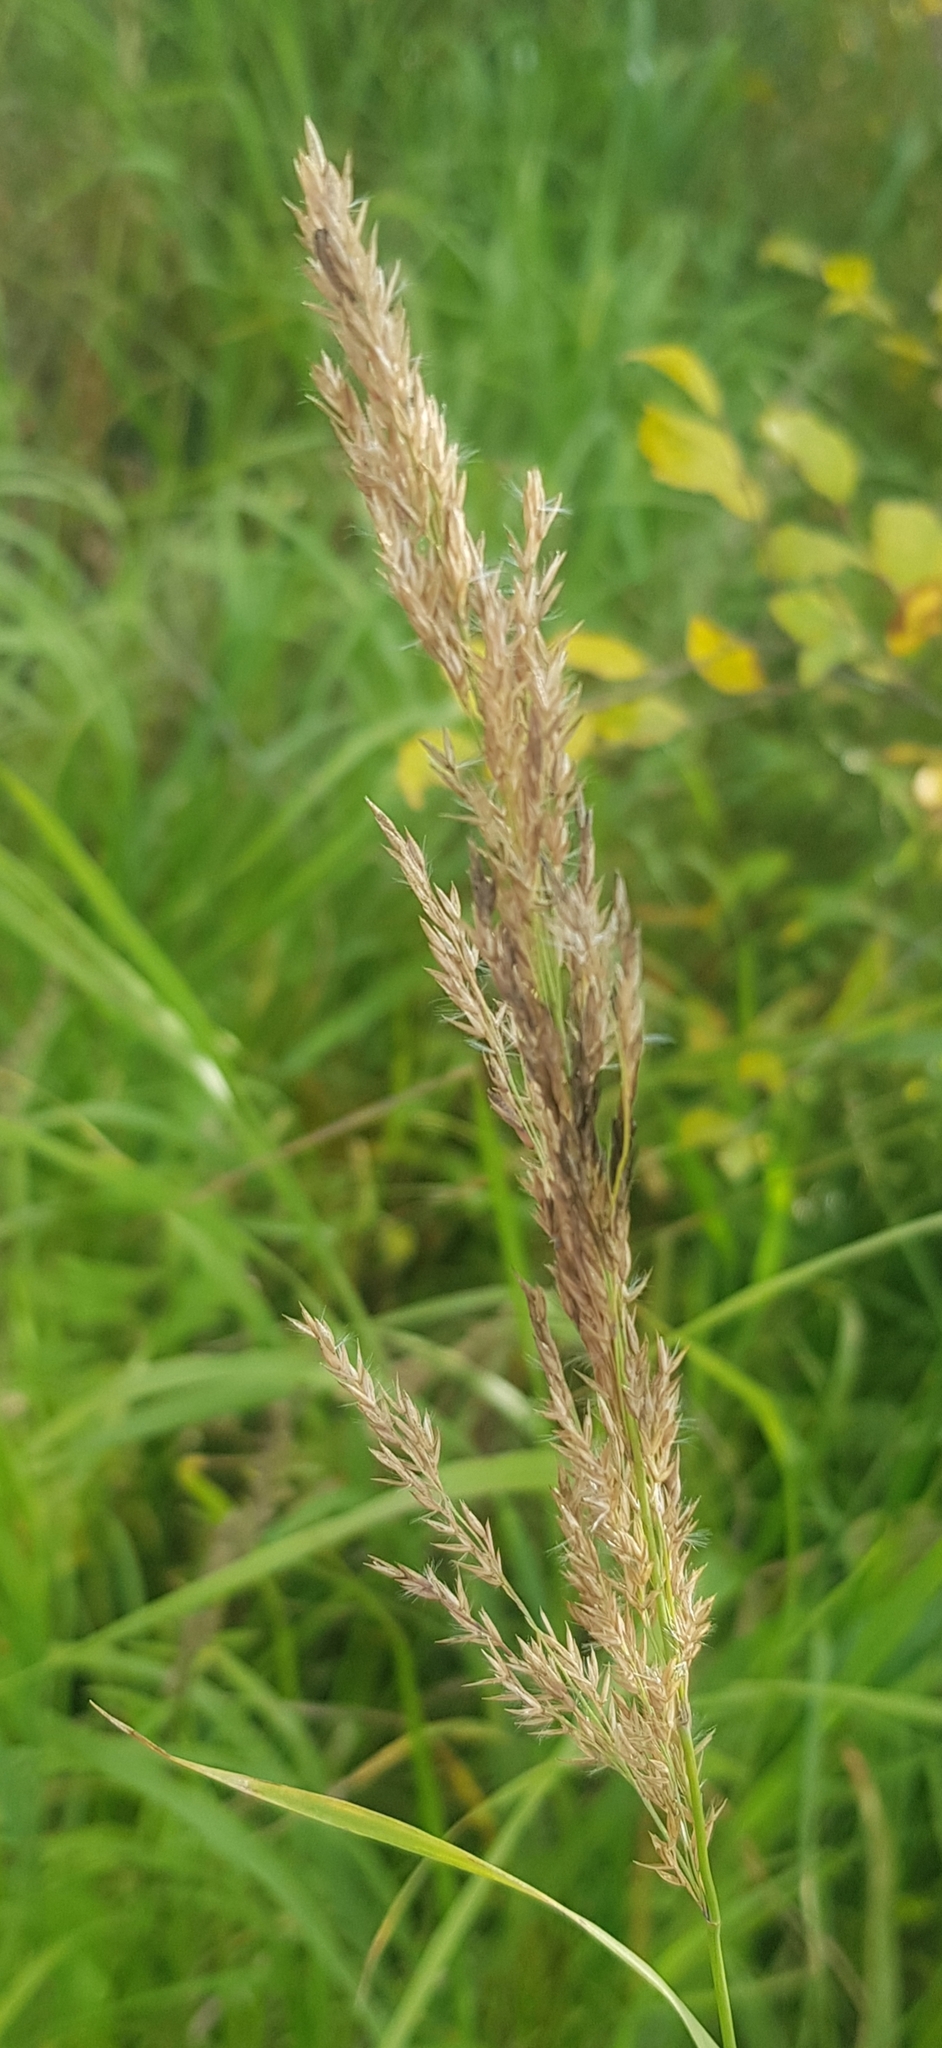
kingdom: Plantae
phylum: Tracheophyta
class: Liliopsida
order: Poales
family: Poaceae
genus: Calamagrostis
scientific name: Calamagrostis epigejos
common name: Wood small-reed
